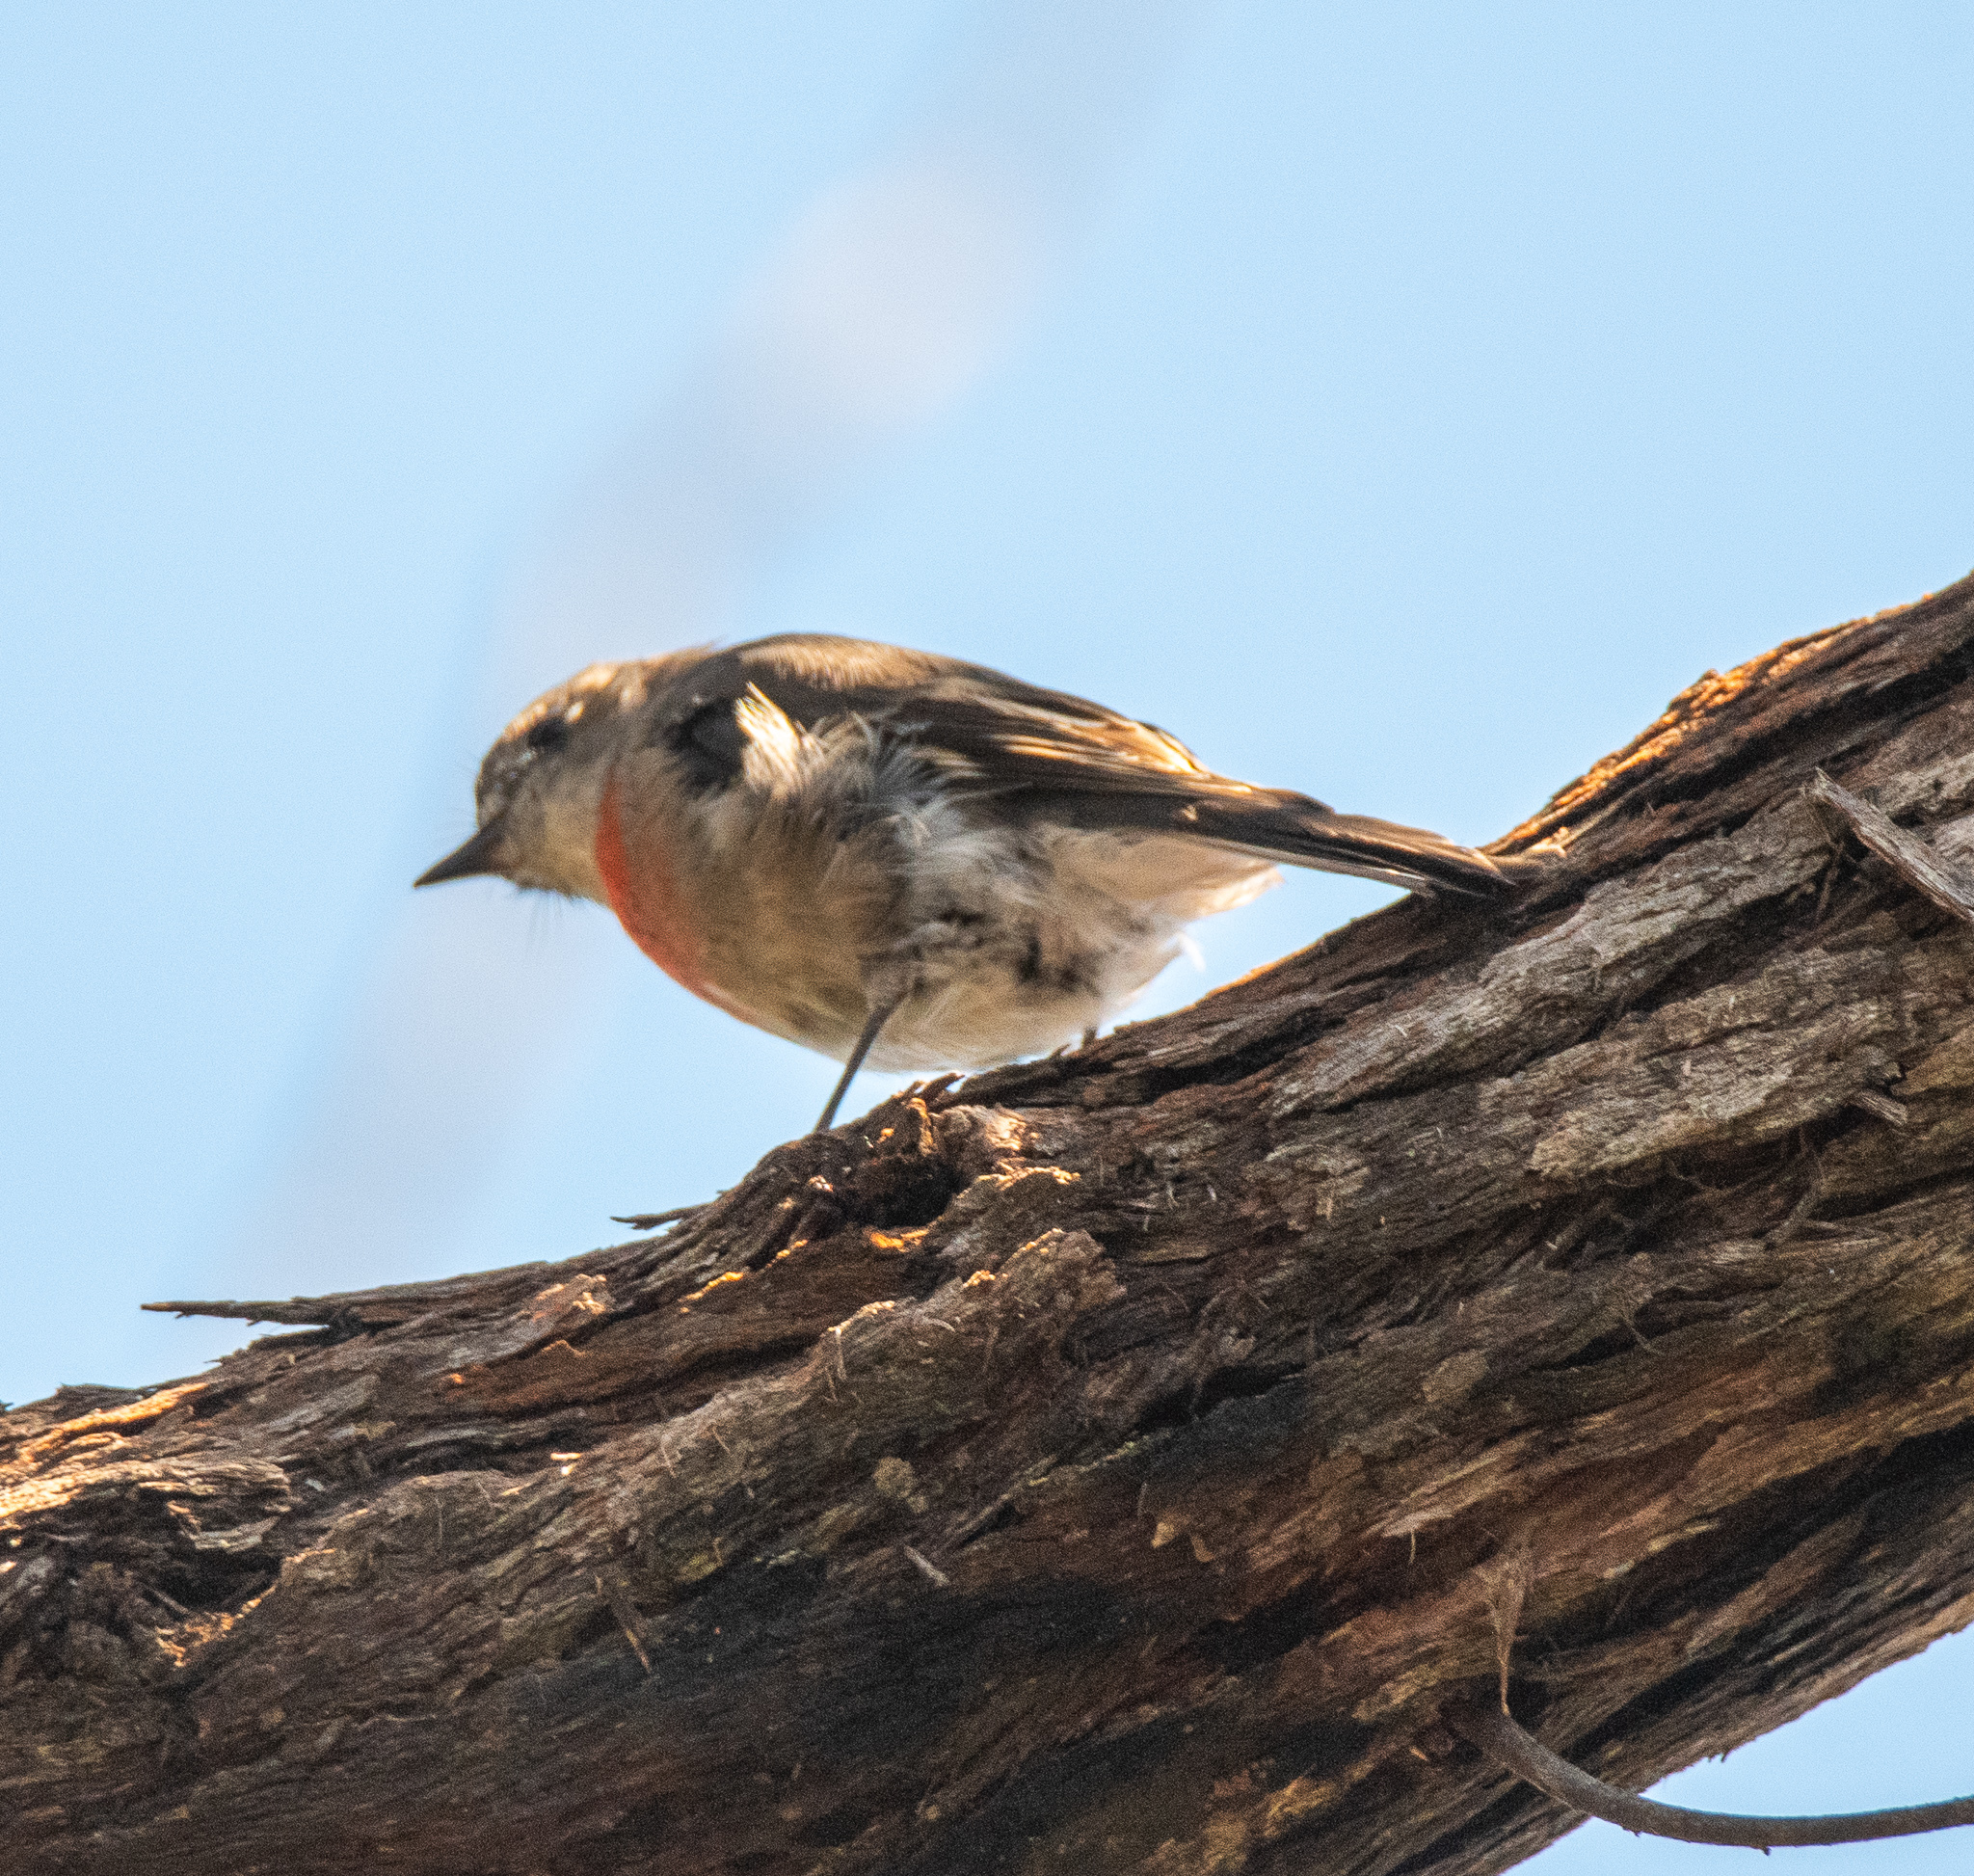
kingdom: Animalia
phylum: Chordata
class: Aves
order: Passeriformes
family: Petroicidae
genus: Petroica
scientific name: Petroica boodang
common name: Scarlet robin
